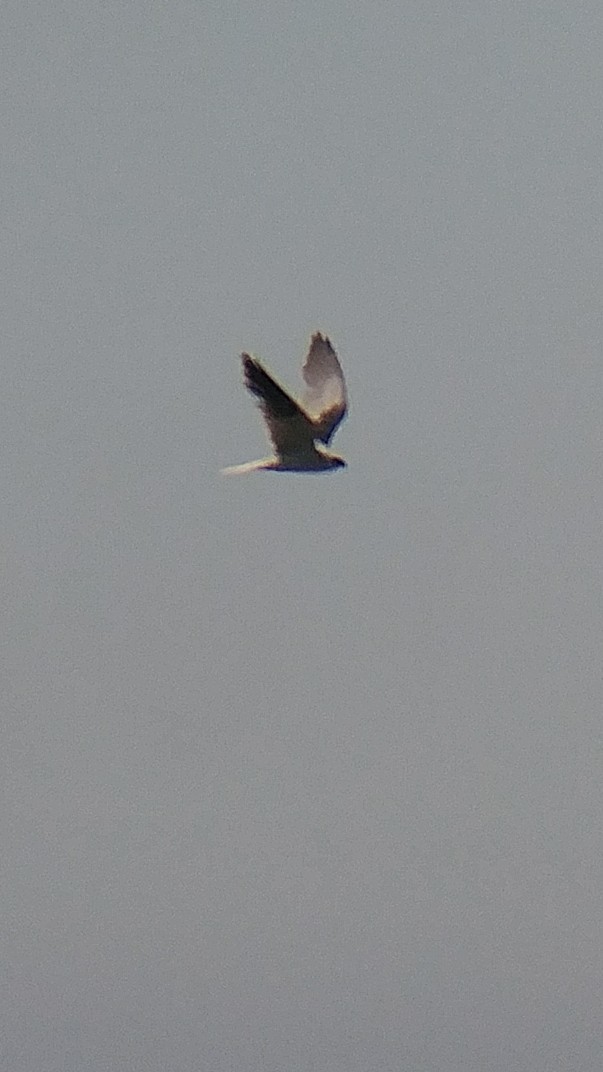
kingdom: Animalia
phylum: Chordata
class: Aves
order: Accipitriformes
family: Accipitridae
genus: Elanus
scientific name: Elanus leucurus
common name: White-tailed kite
